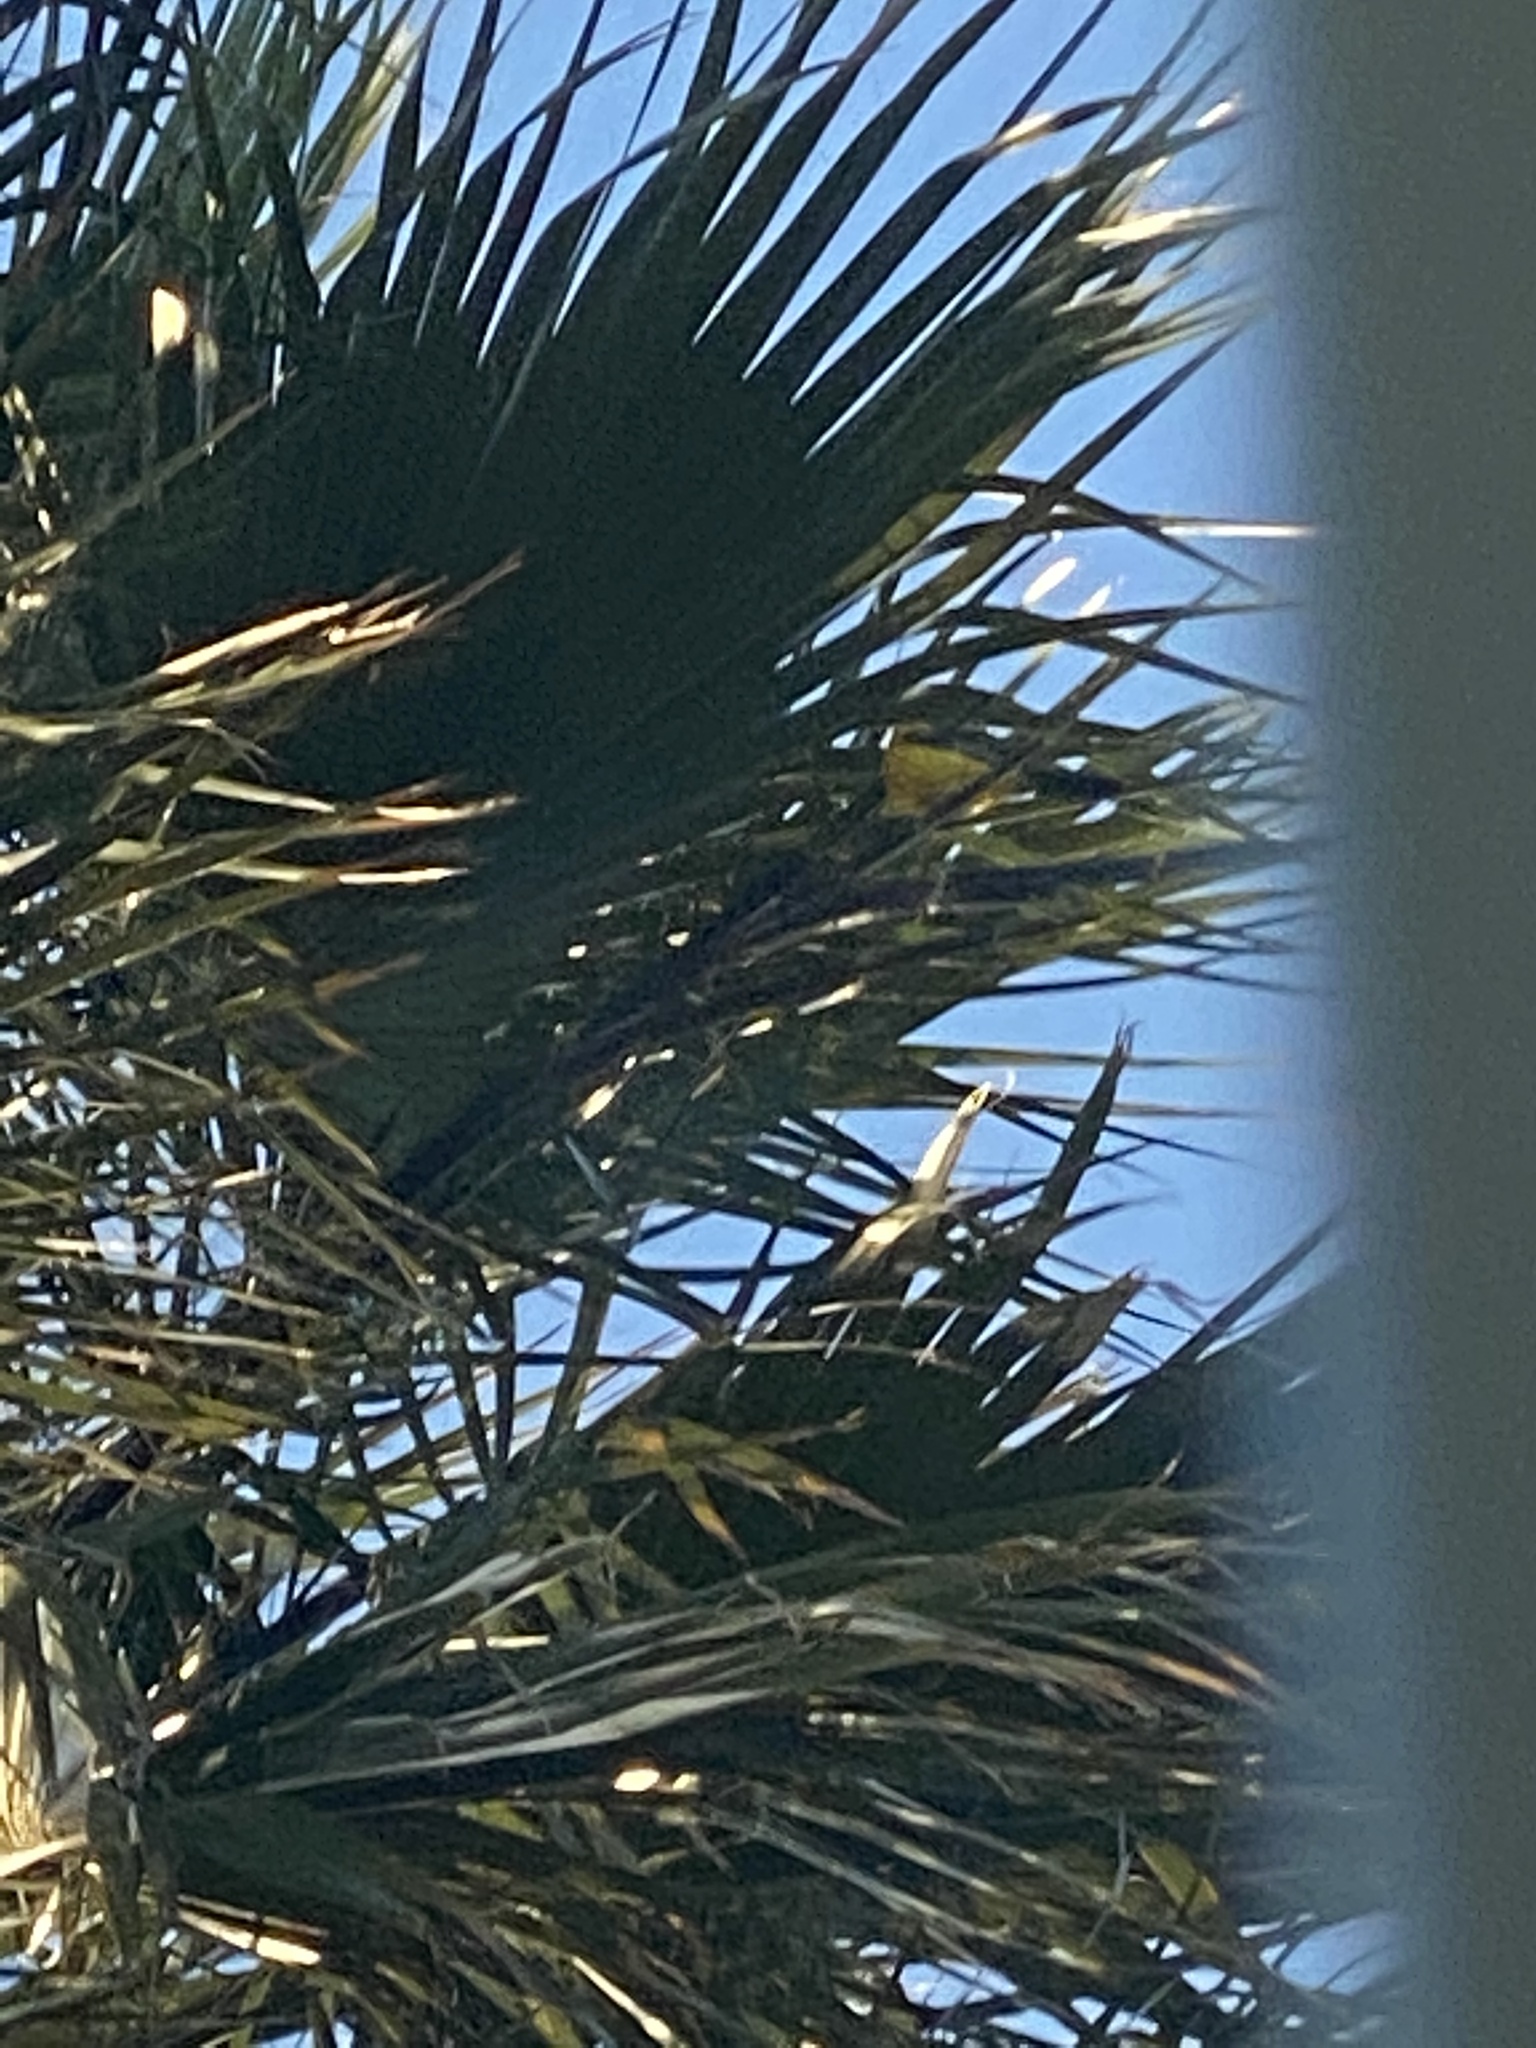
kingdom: Animalia
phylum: Chordata
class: Aves
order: Passeriformes
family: Icteridae
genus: Icterus
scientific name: Icterus cucullatus
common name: Hooded oriole
